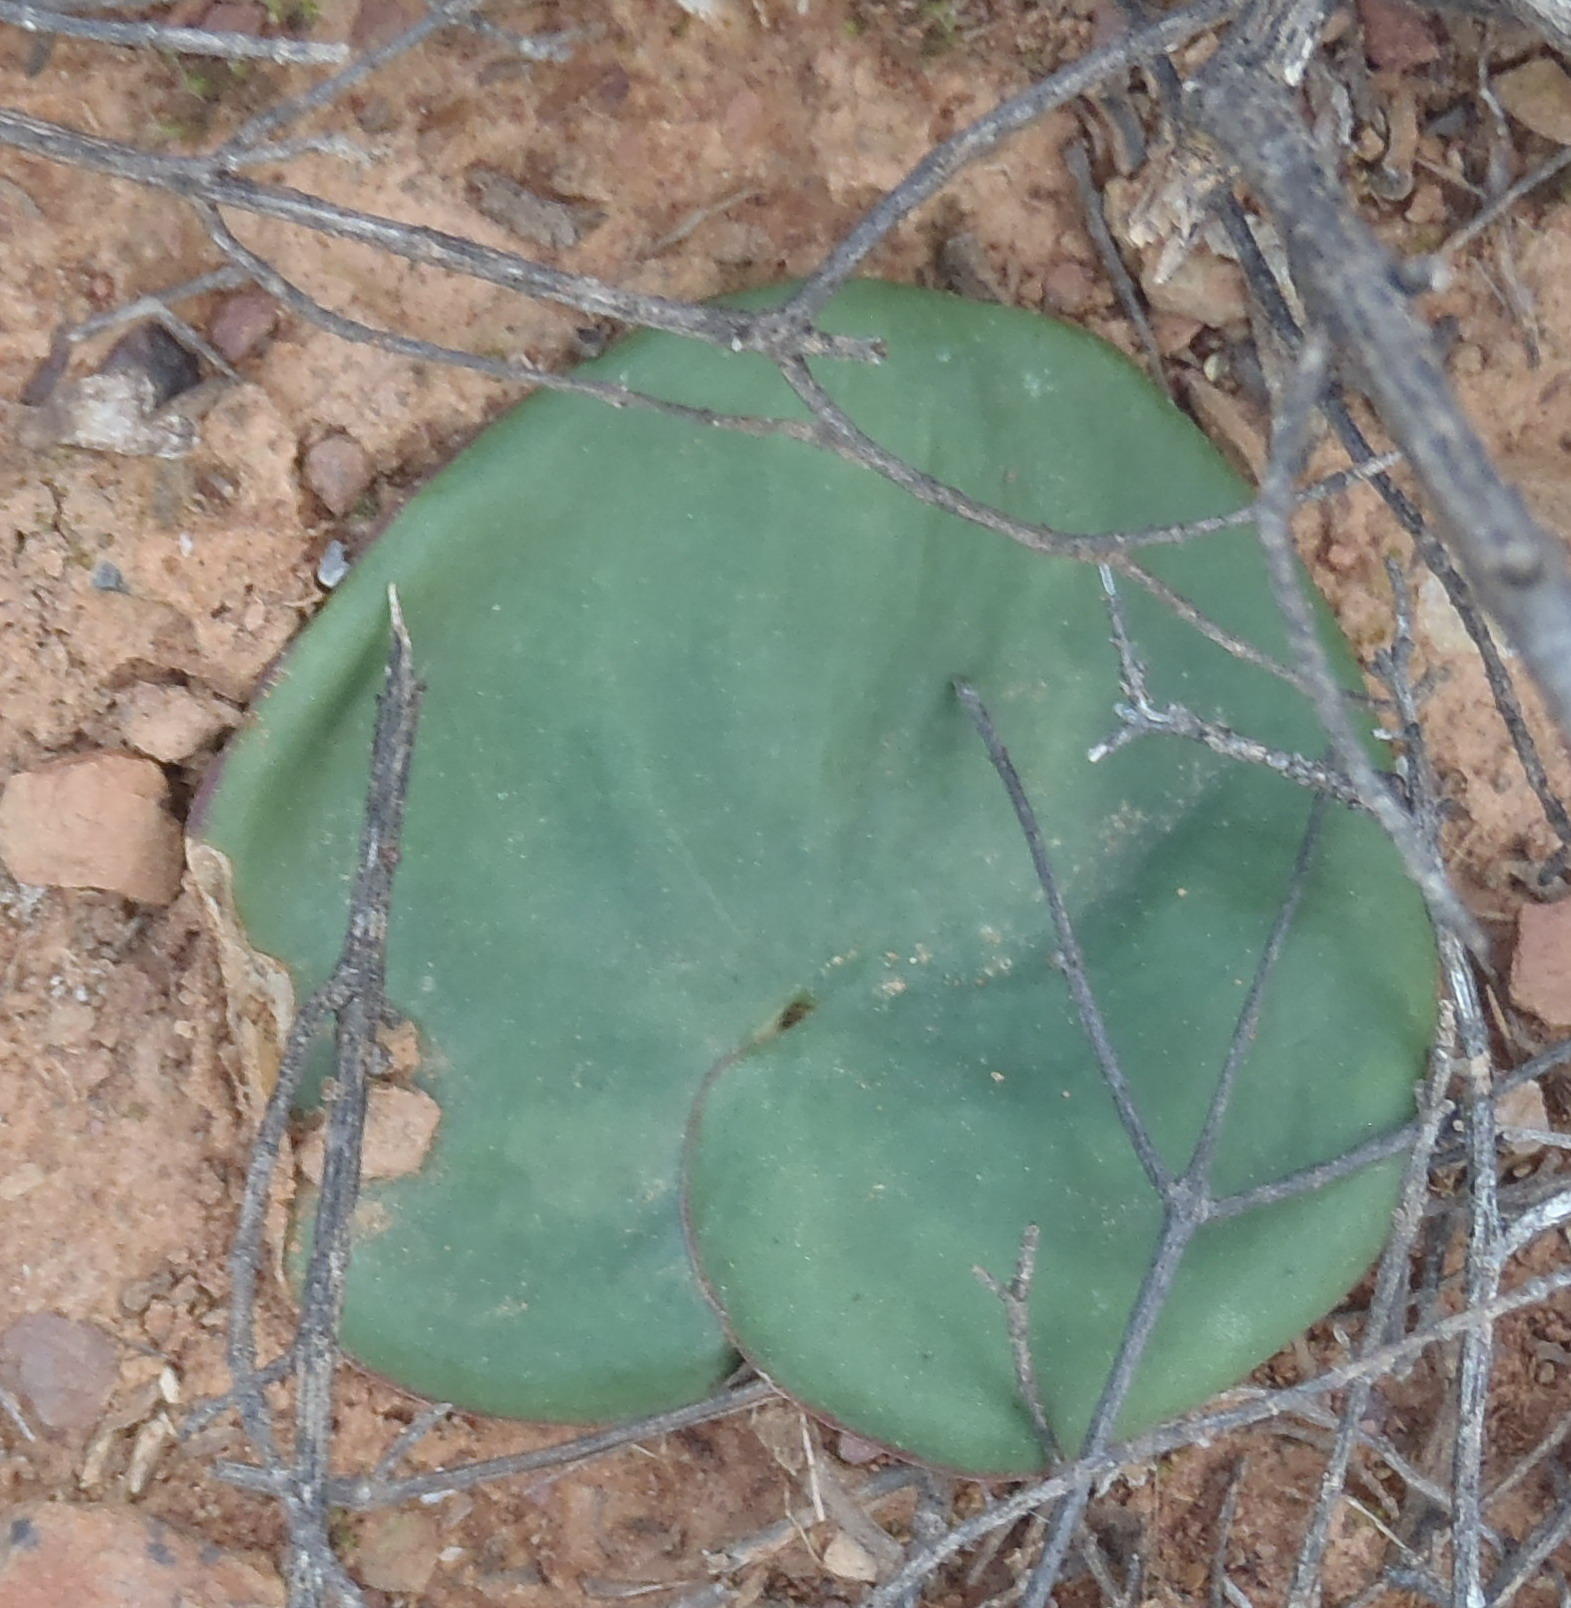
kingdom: Plantae
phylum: Tracheophyta
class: Liliopsida
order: Asparagales
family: Asparagaceae
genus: Eriospermum
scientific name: Eriospermum zeyheri
